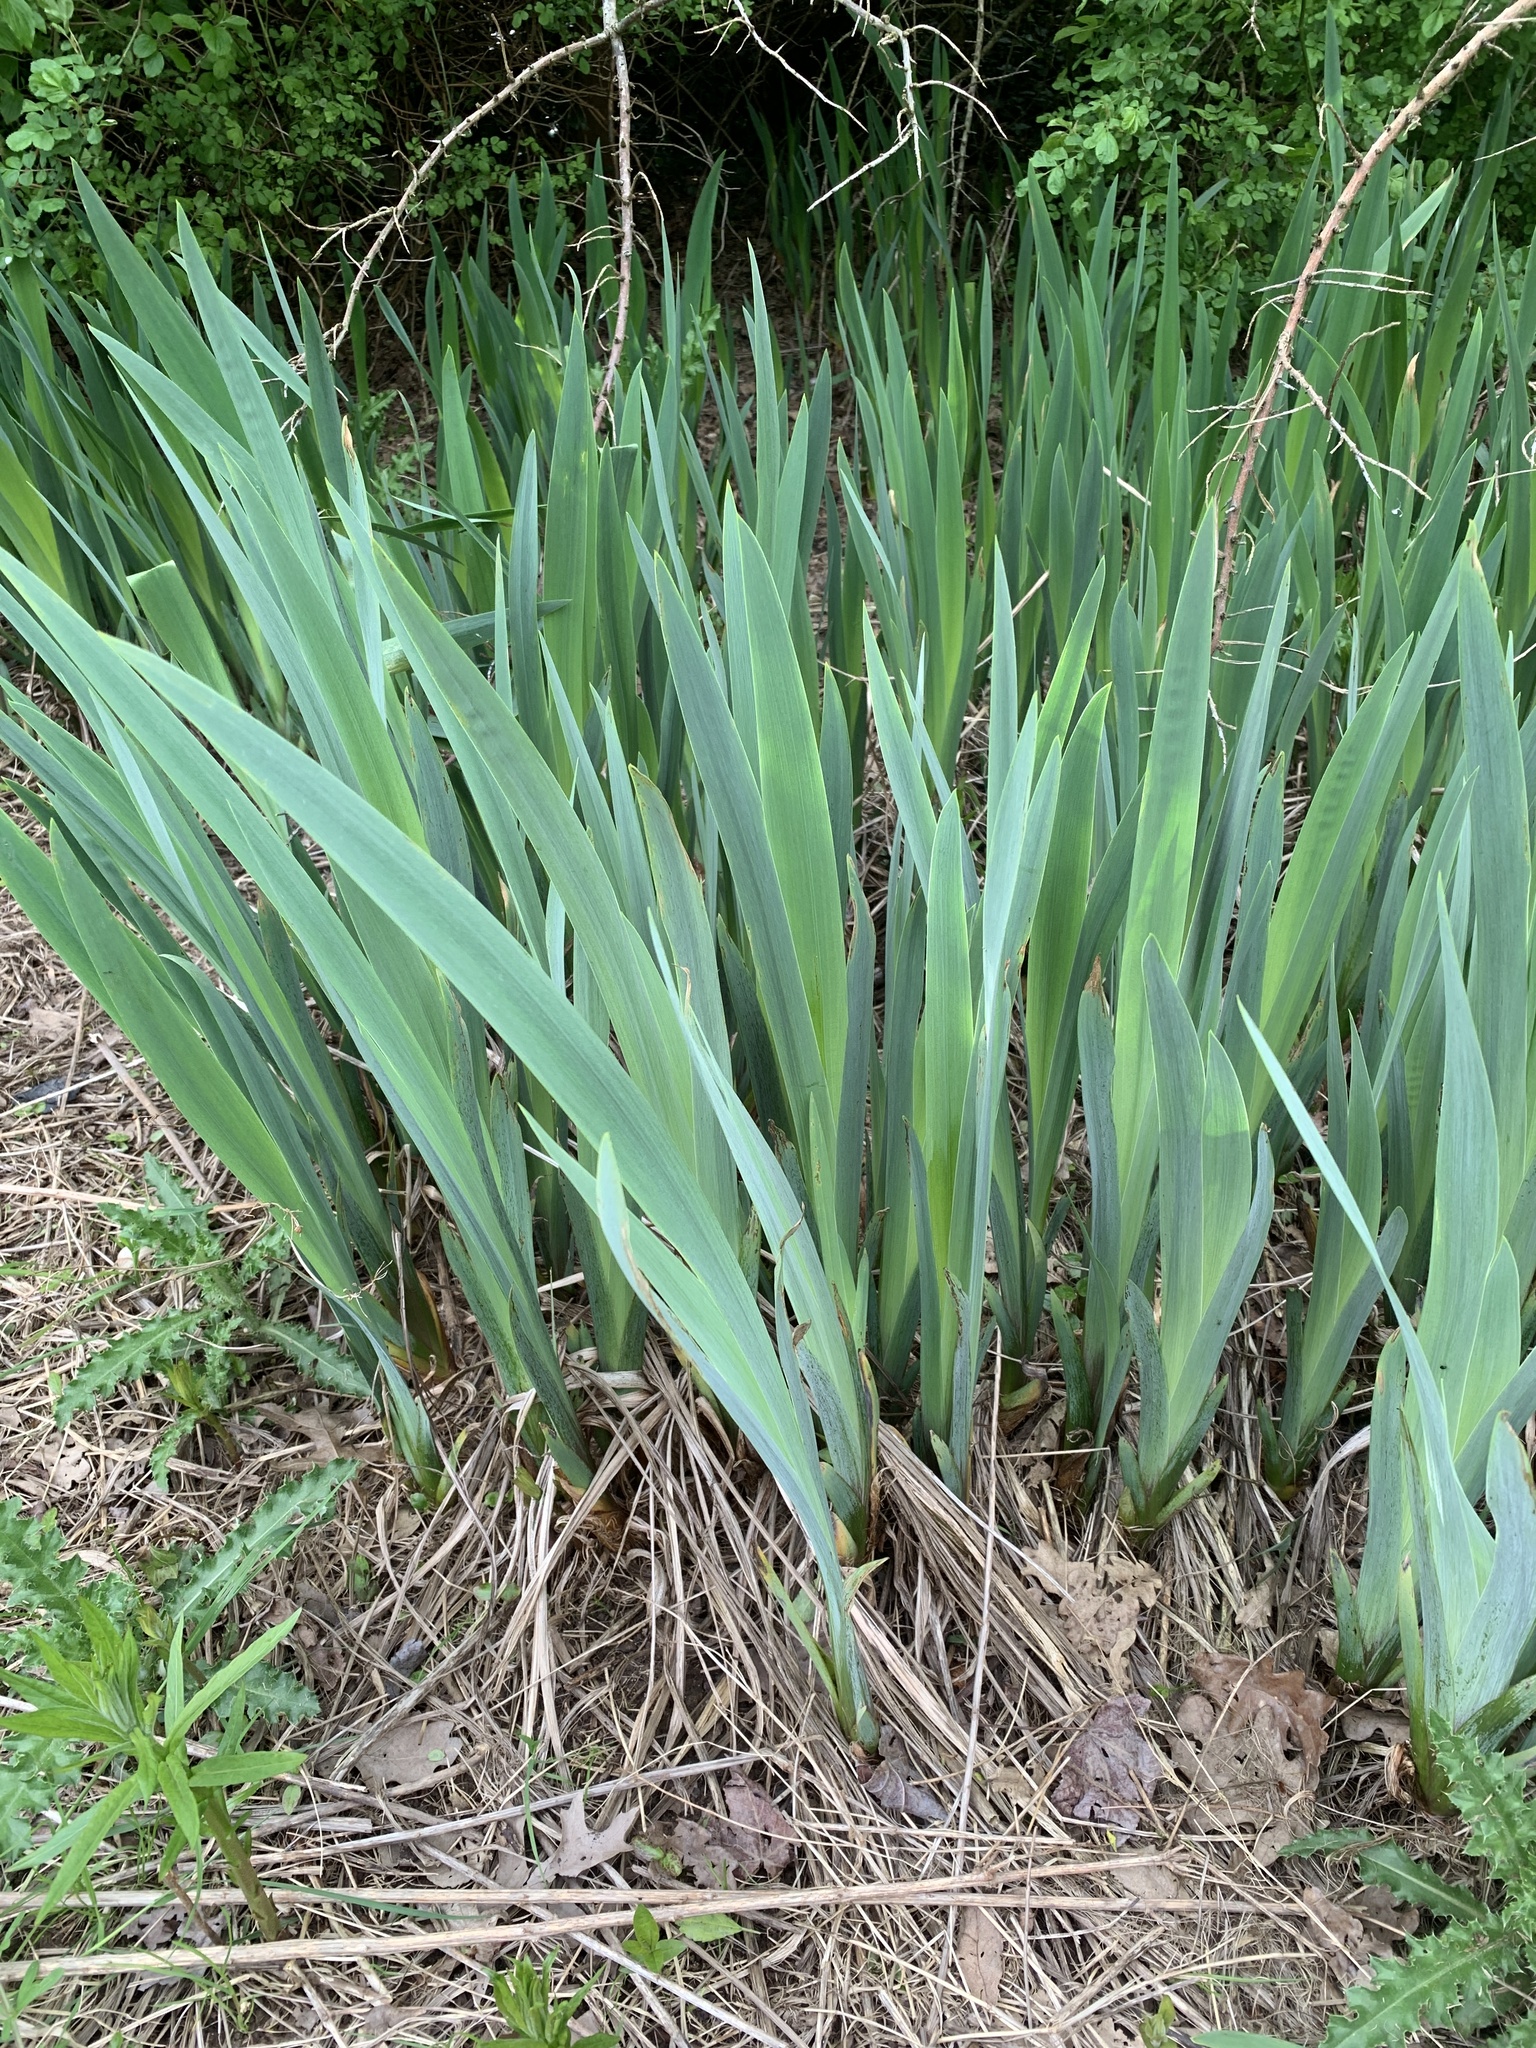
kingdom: Plantae
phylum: Tracheophyta
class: Liliopsida
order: Asparagales
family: Iridaceae
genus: Iris
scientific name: Iris pseudacorus
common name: Yellow flag
